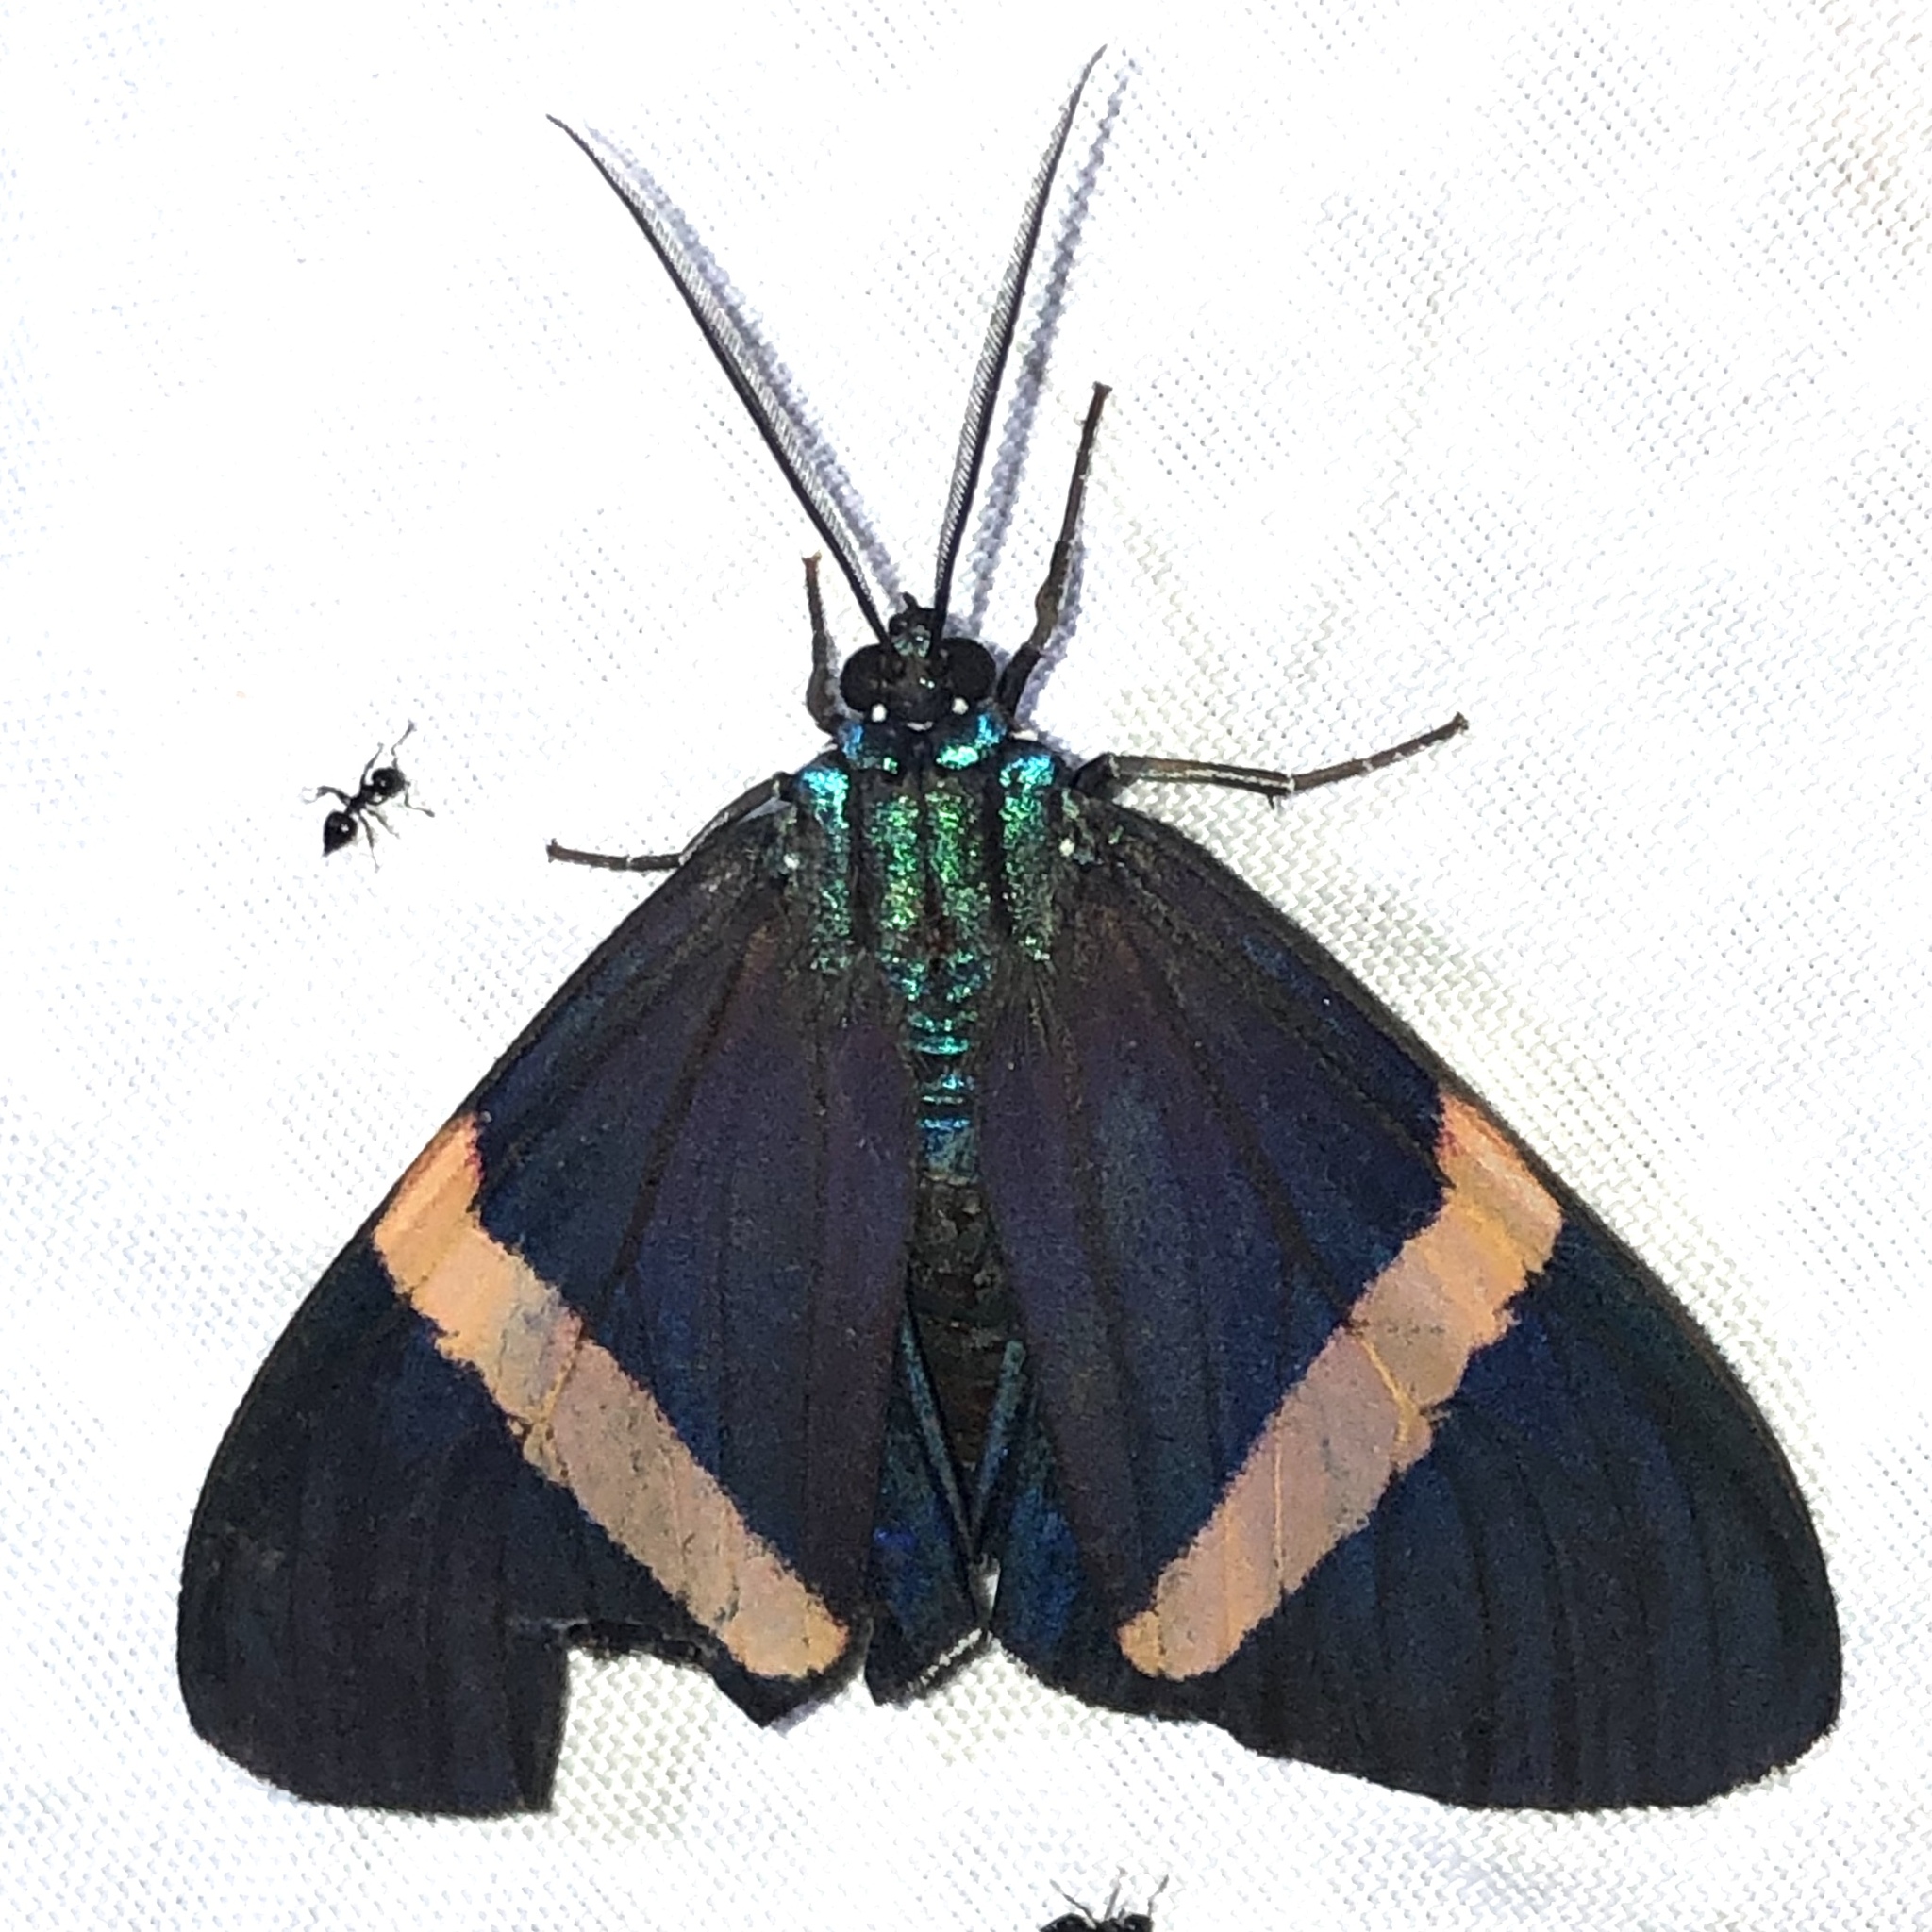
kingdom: Animalia
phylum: Arthropoda
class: Insecta
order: Lepidoptera
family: Erebidae
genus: Hypocrita
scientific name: Hypocrita arcaei
